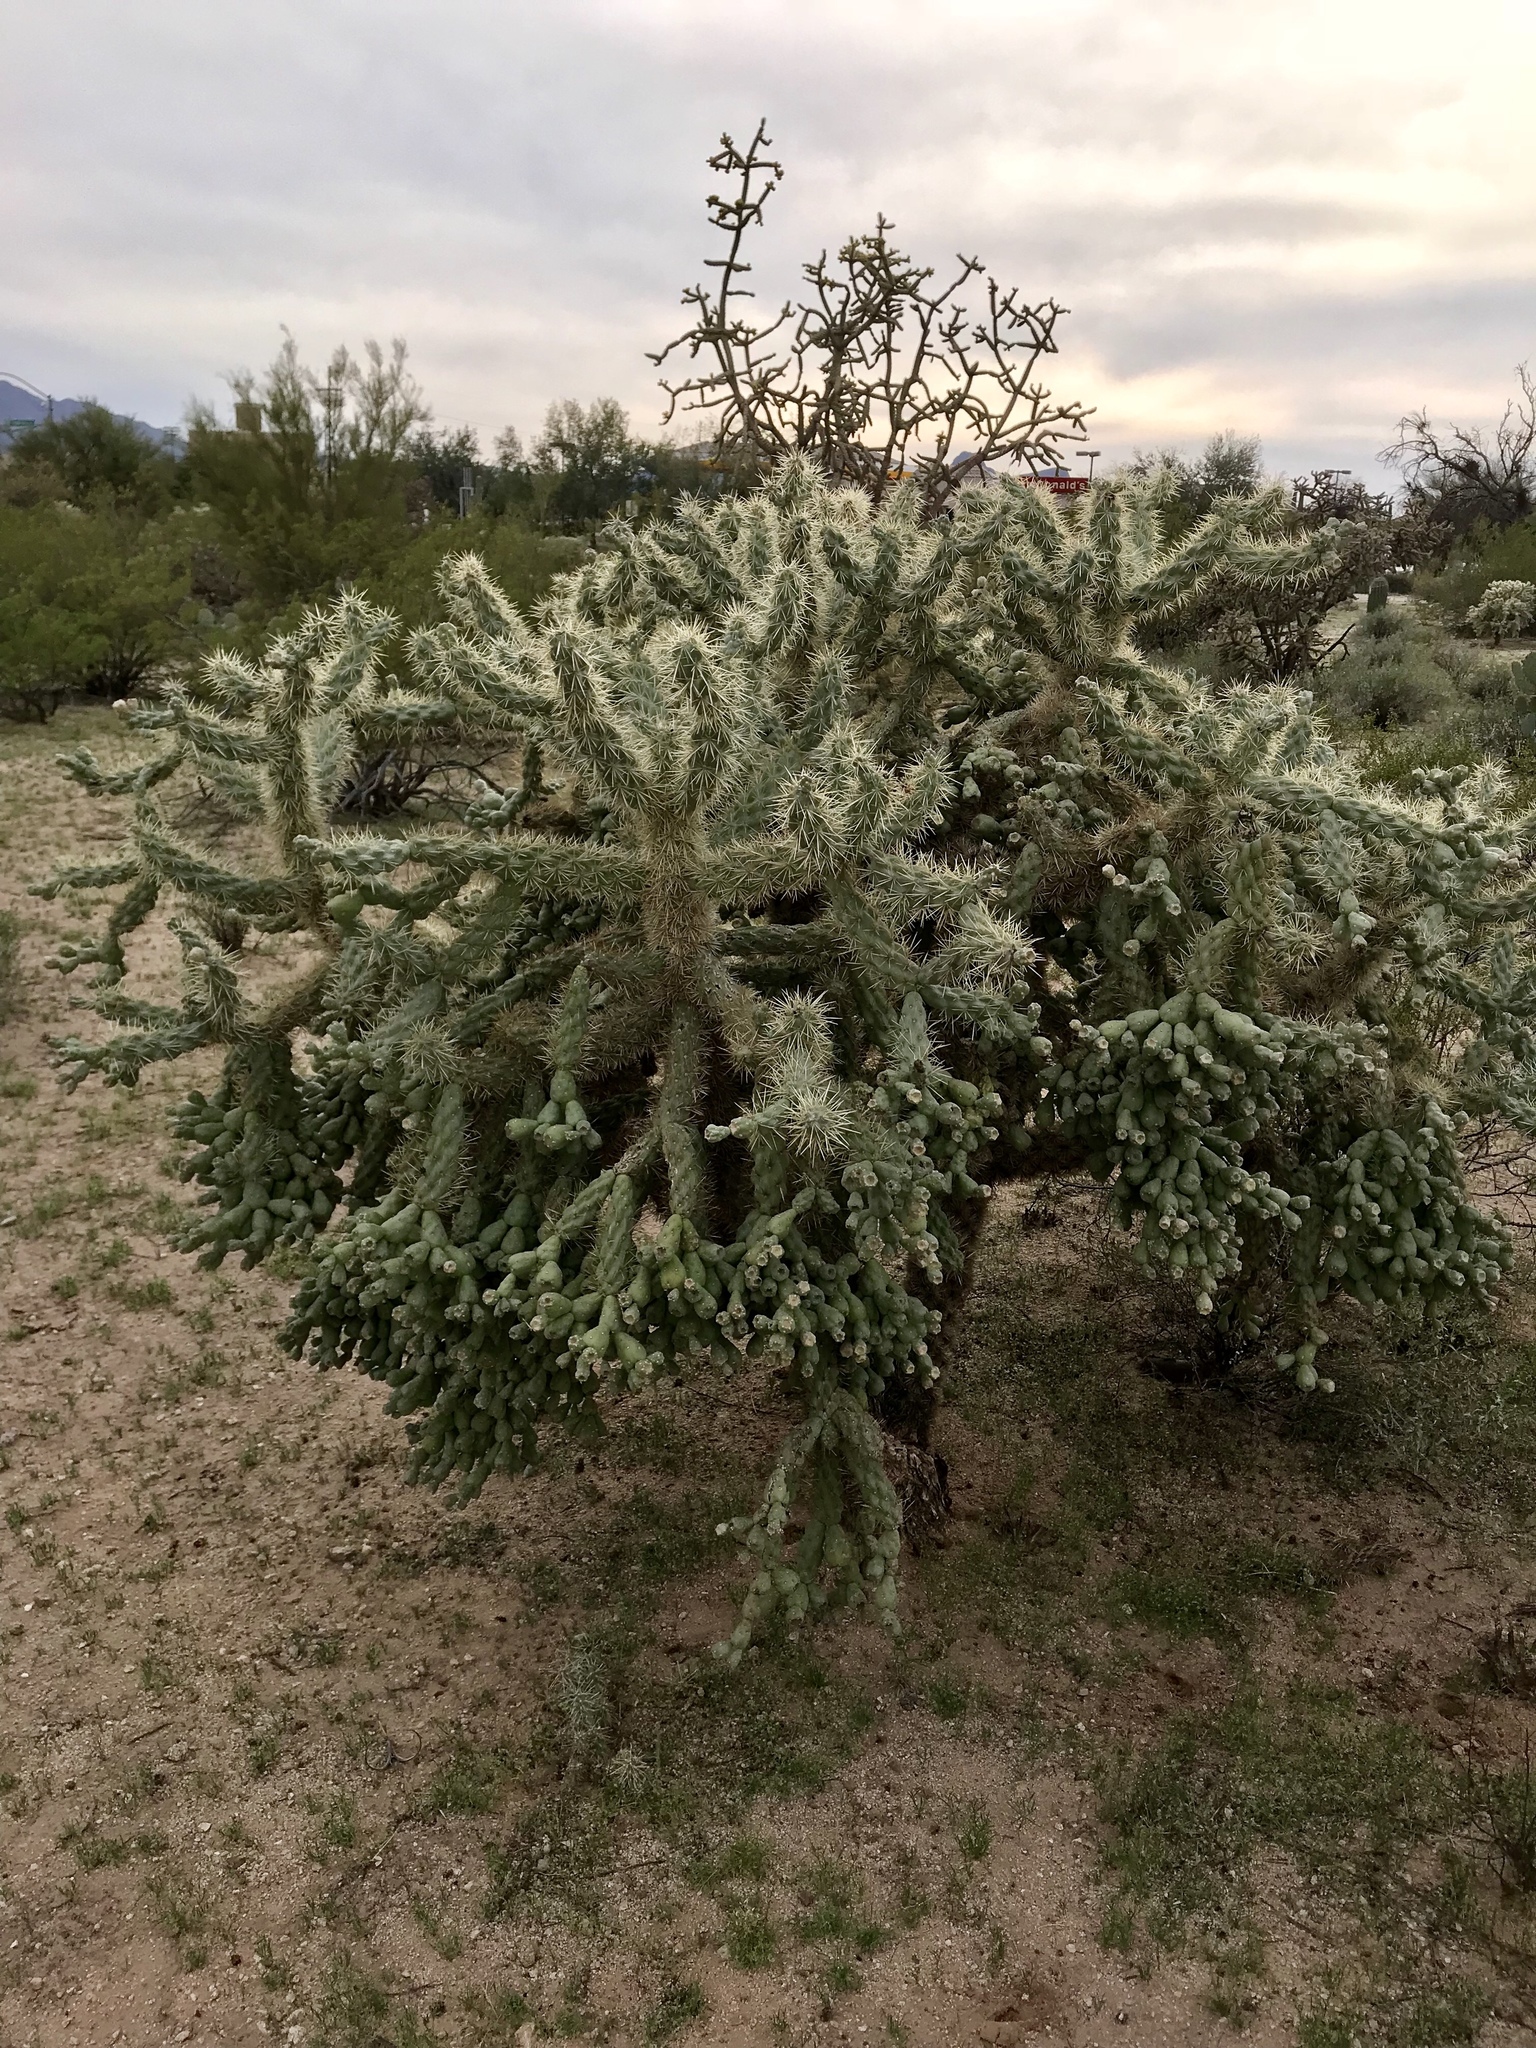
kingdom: Plantae
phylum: Tracheophyta
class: Magnoliopsida
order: Caryophyllales
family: Cactaceae
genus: Cylindropuntia
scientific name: Cylindropuntia fulgida
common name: Jumping cholla
